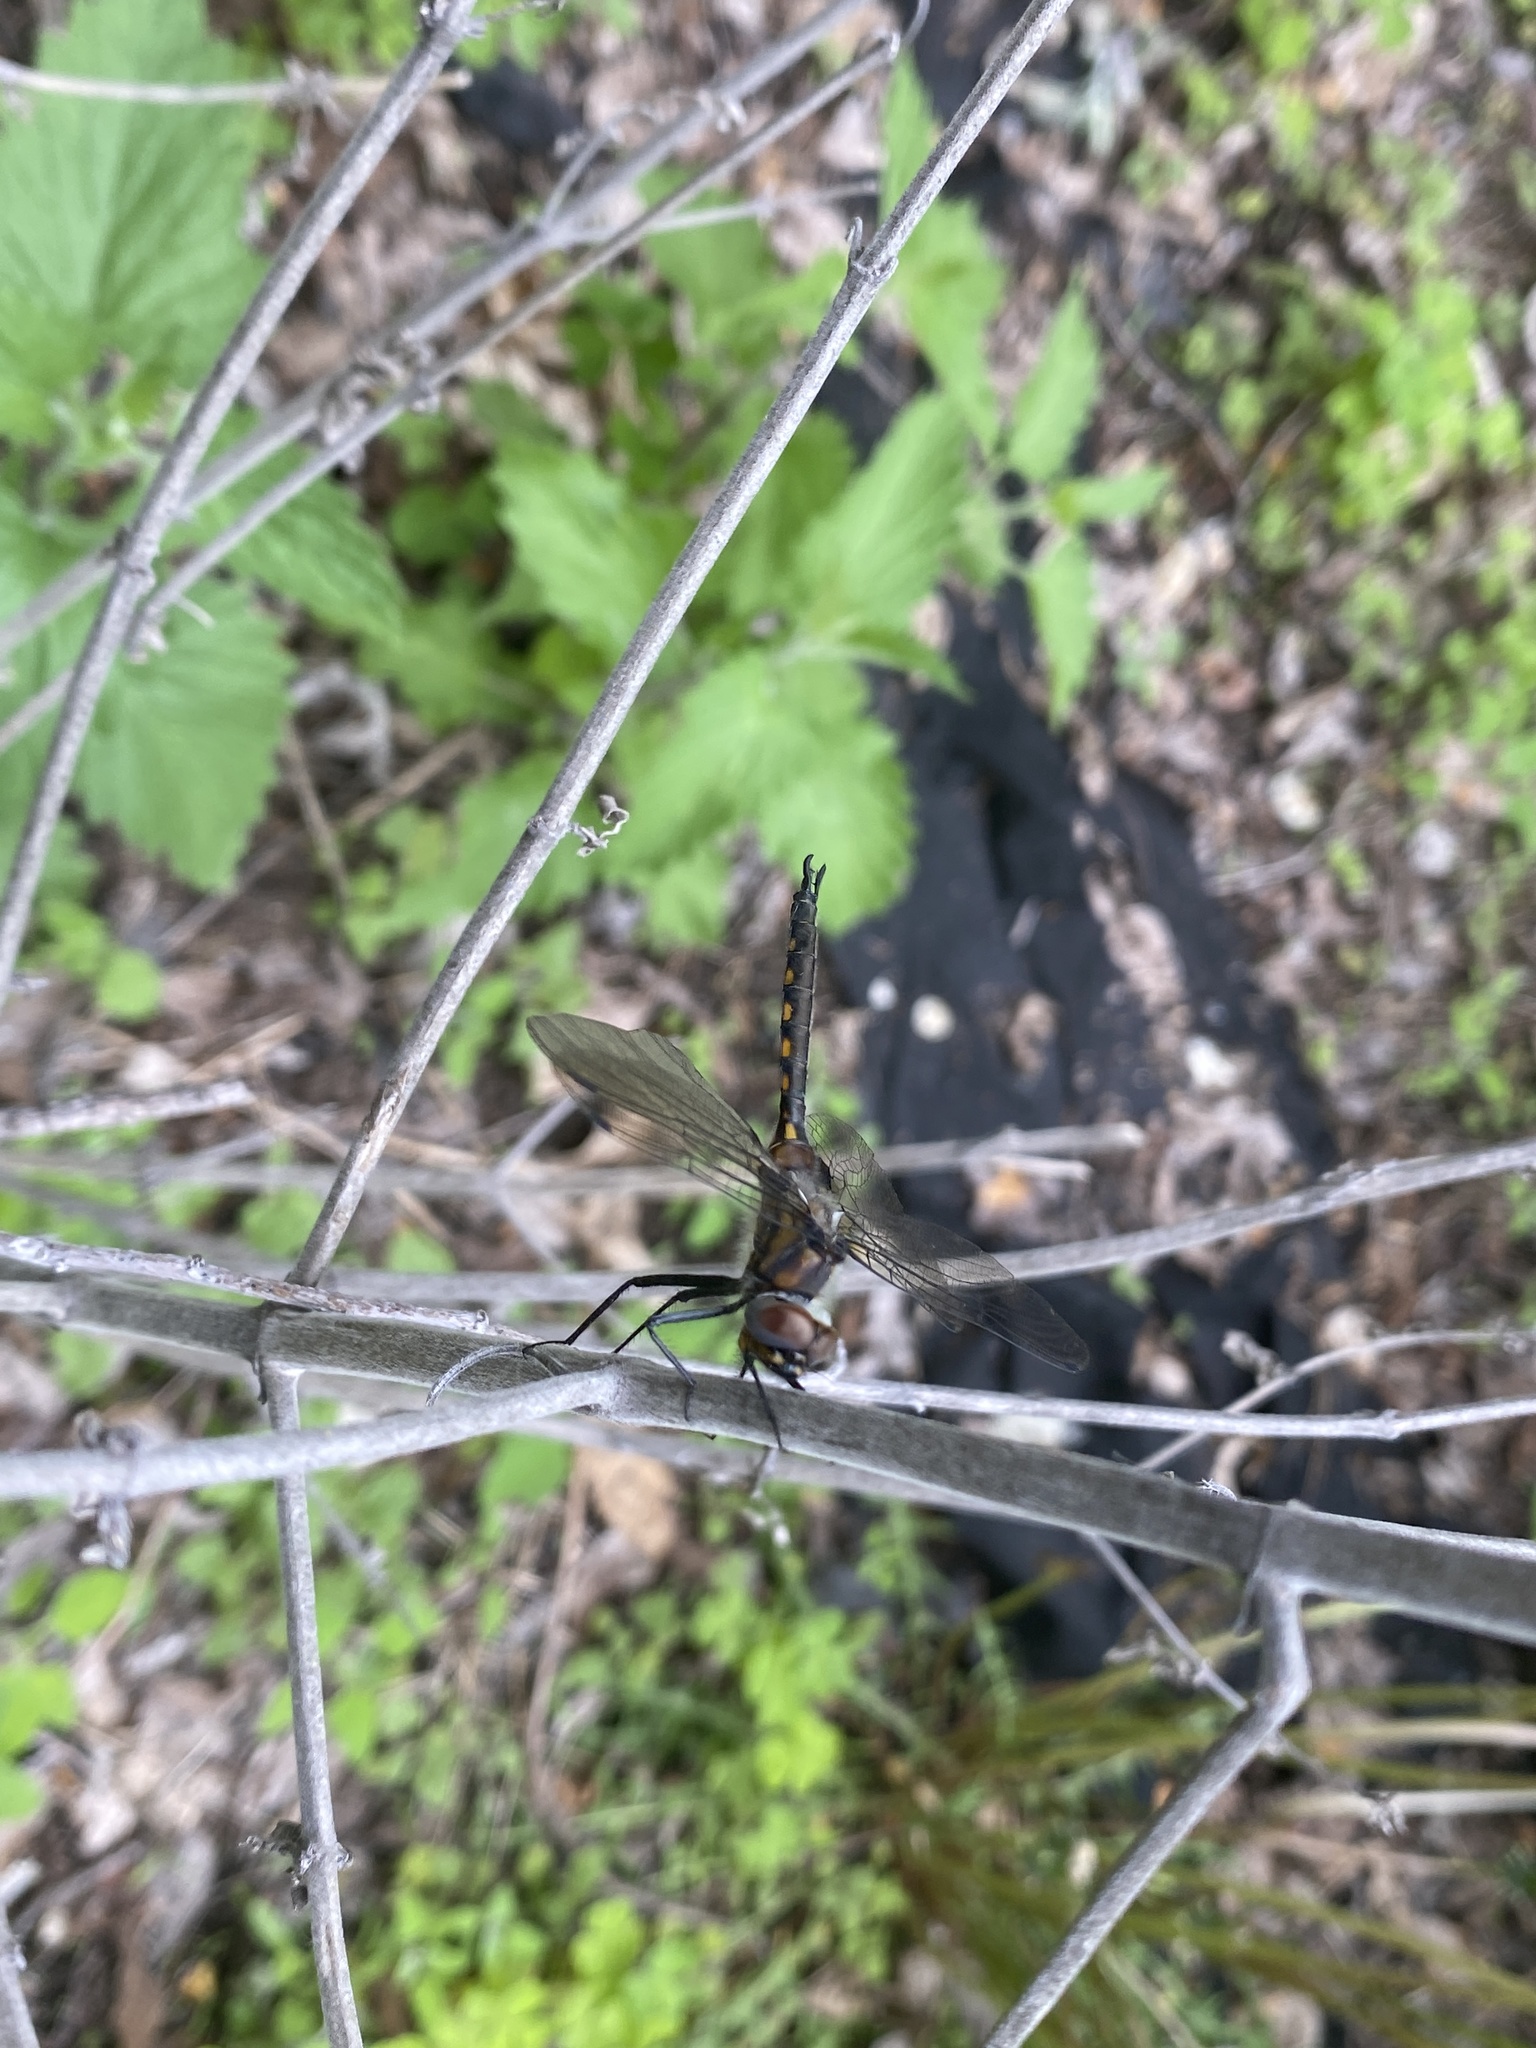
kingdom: Animalia
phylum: Arthropoda
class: Insecta
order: Odonata
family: Corduliidae
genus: Epitheca
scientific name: Epitheca spinigera
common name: Spiny baskettail
